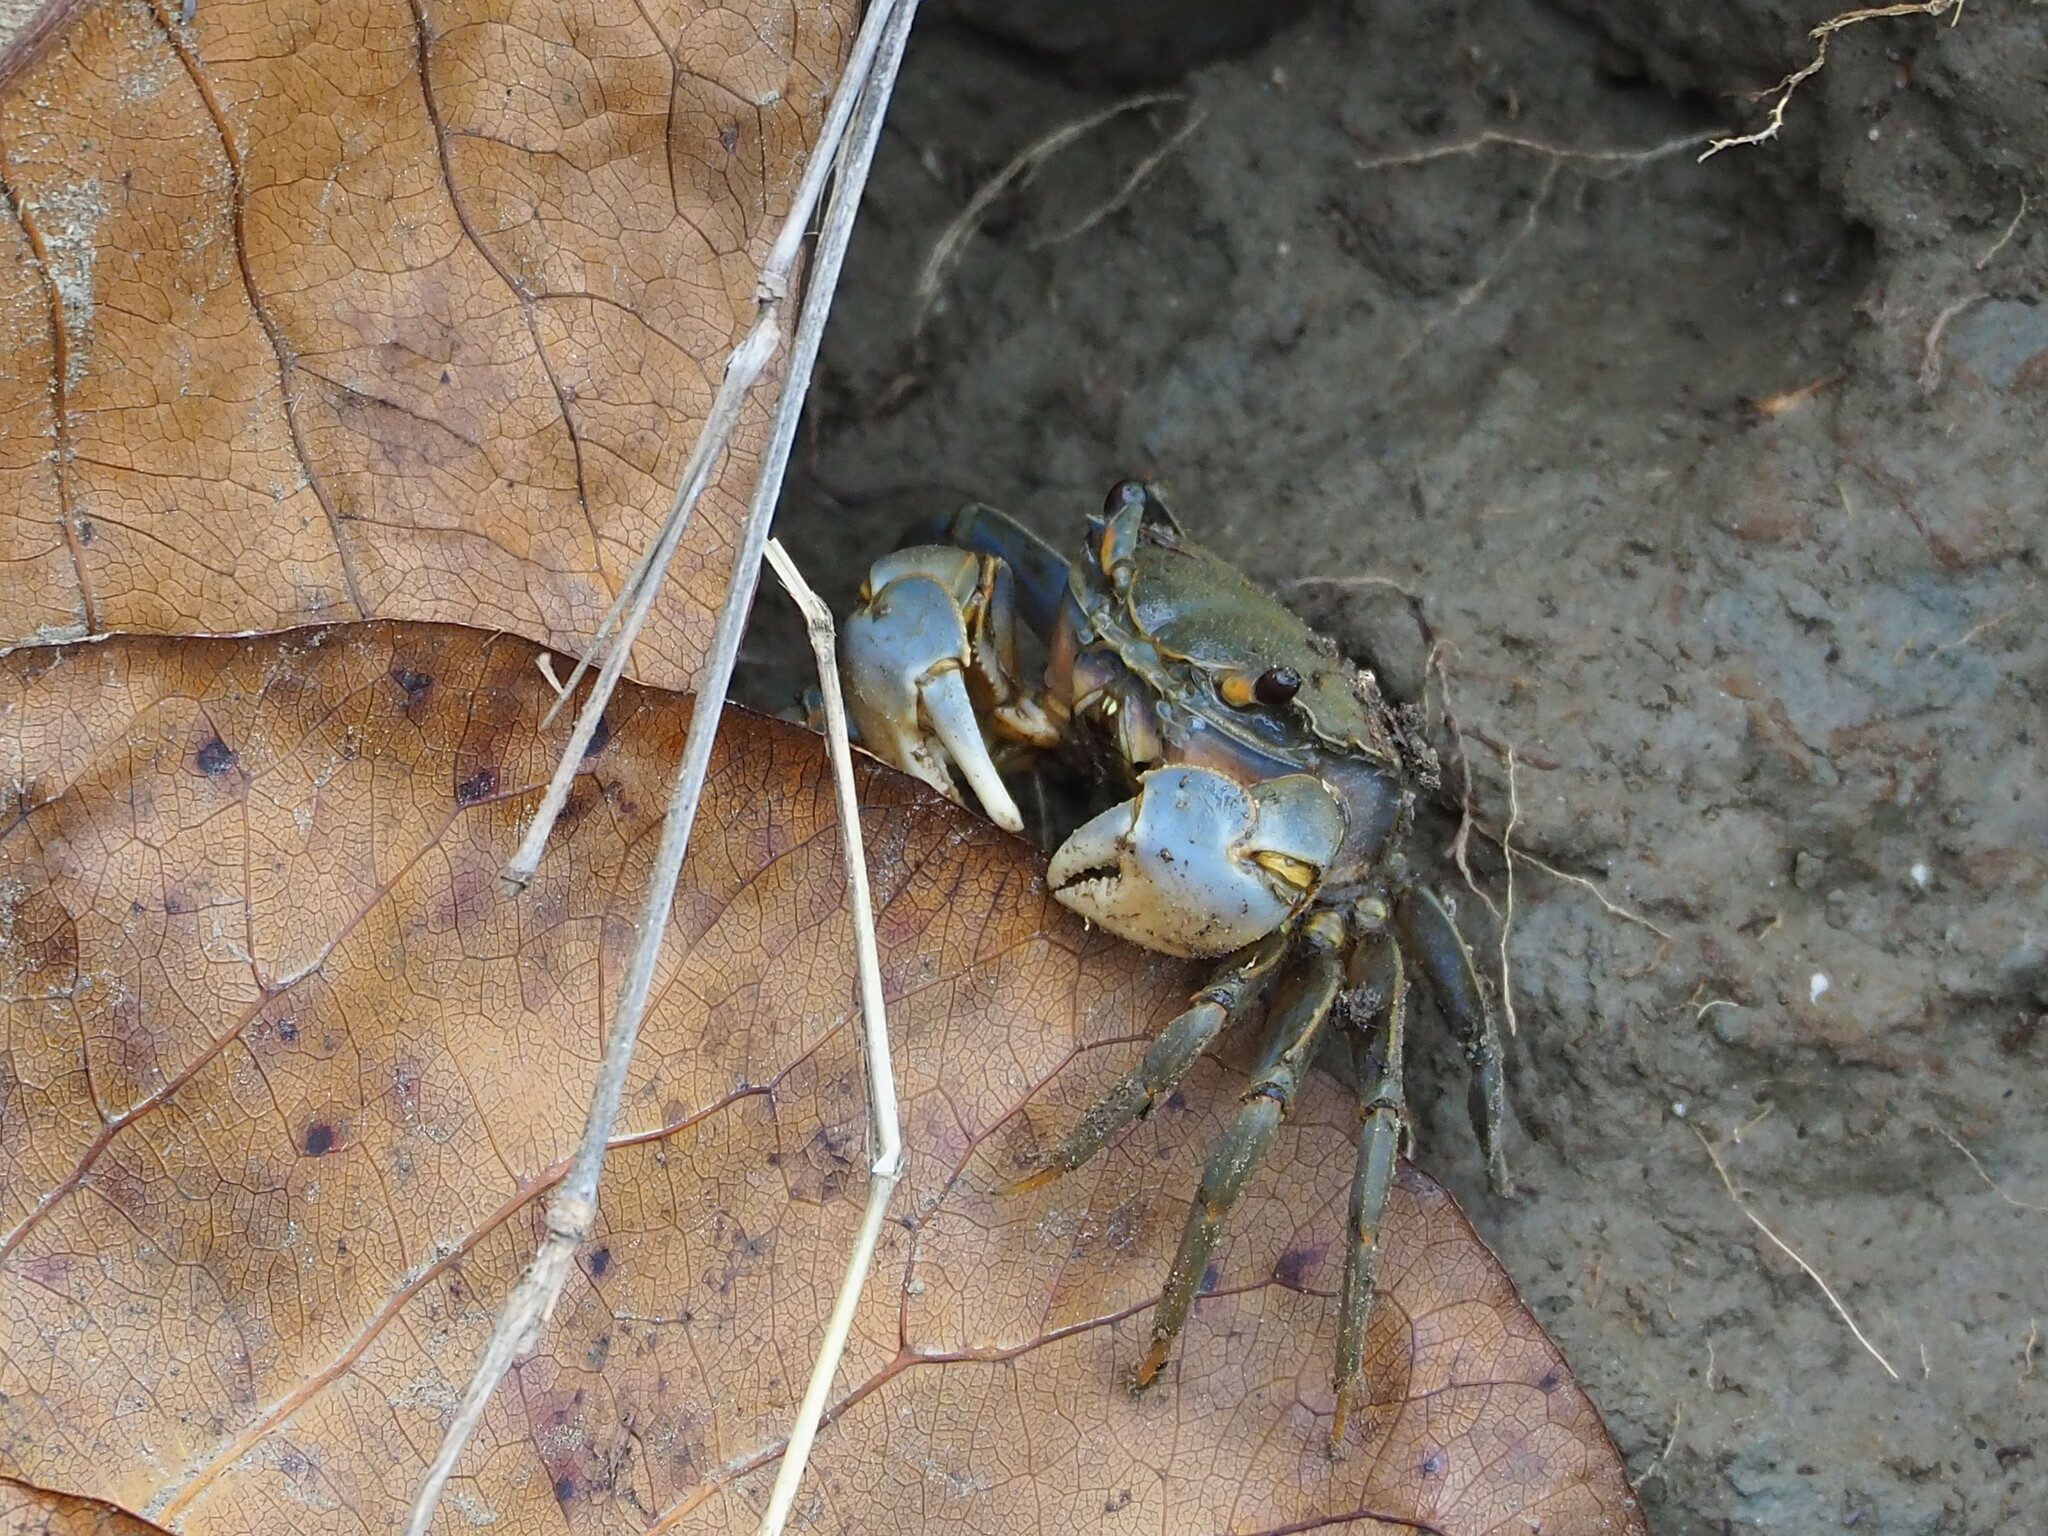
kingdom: Animalia
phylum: Arthropoda
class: Malacostraca
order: Decapoda
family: Varunidae
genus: Helice
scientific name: Helice formosensis
